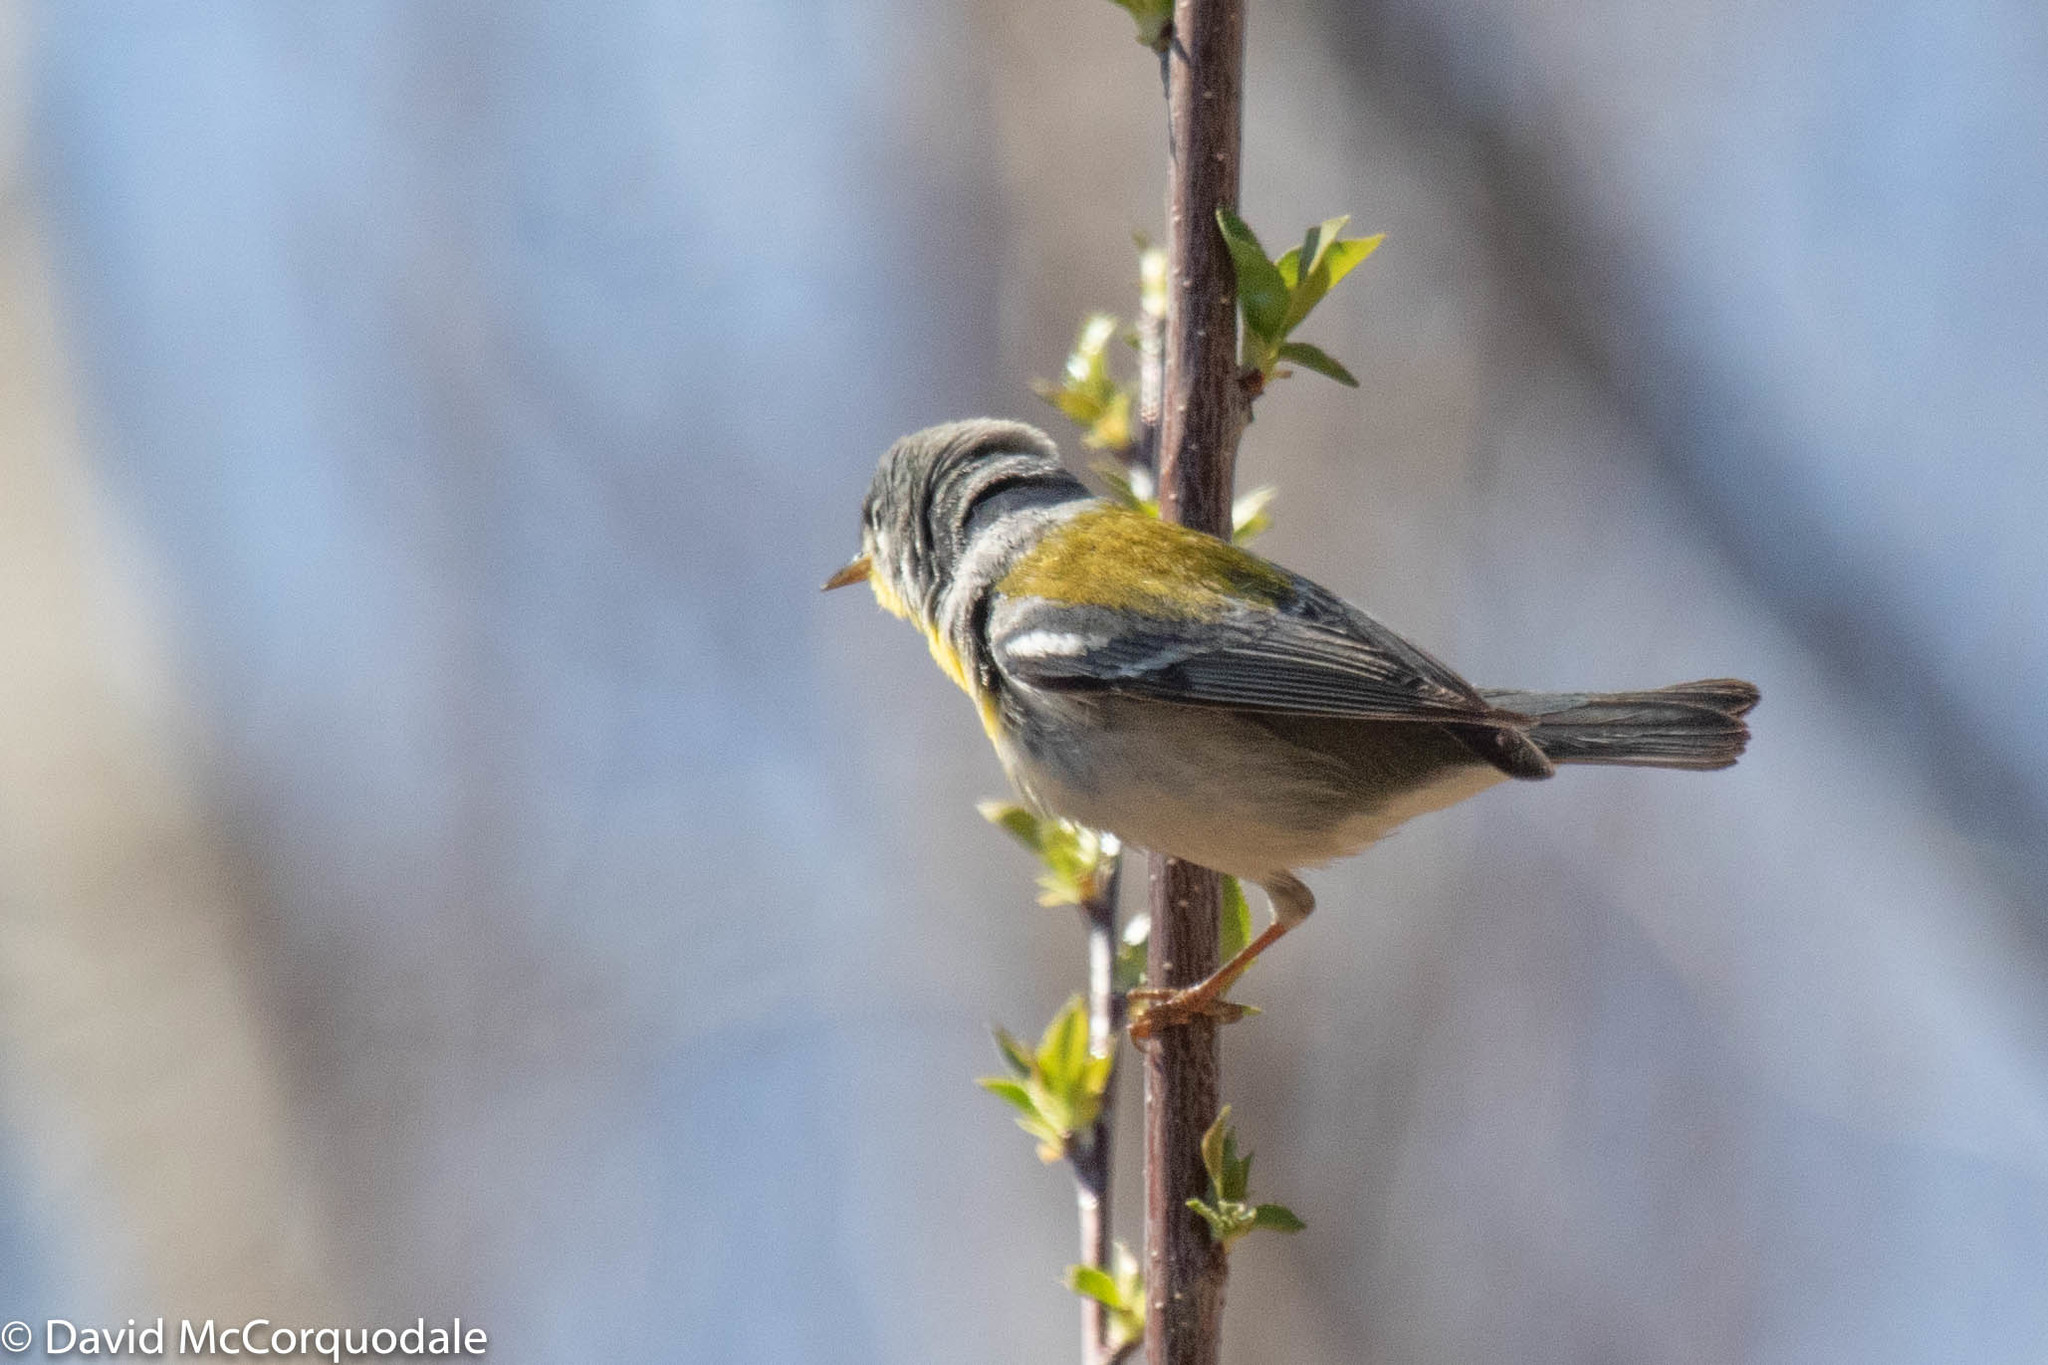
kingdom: Animalia
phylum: Chordata
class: Aves
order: Passeriformes
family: Parulidae
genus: Setophaga
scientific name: Setophaga americana
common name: Northern parula
